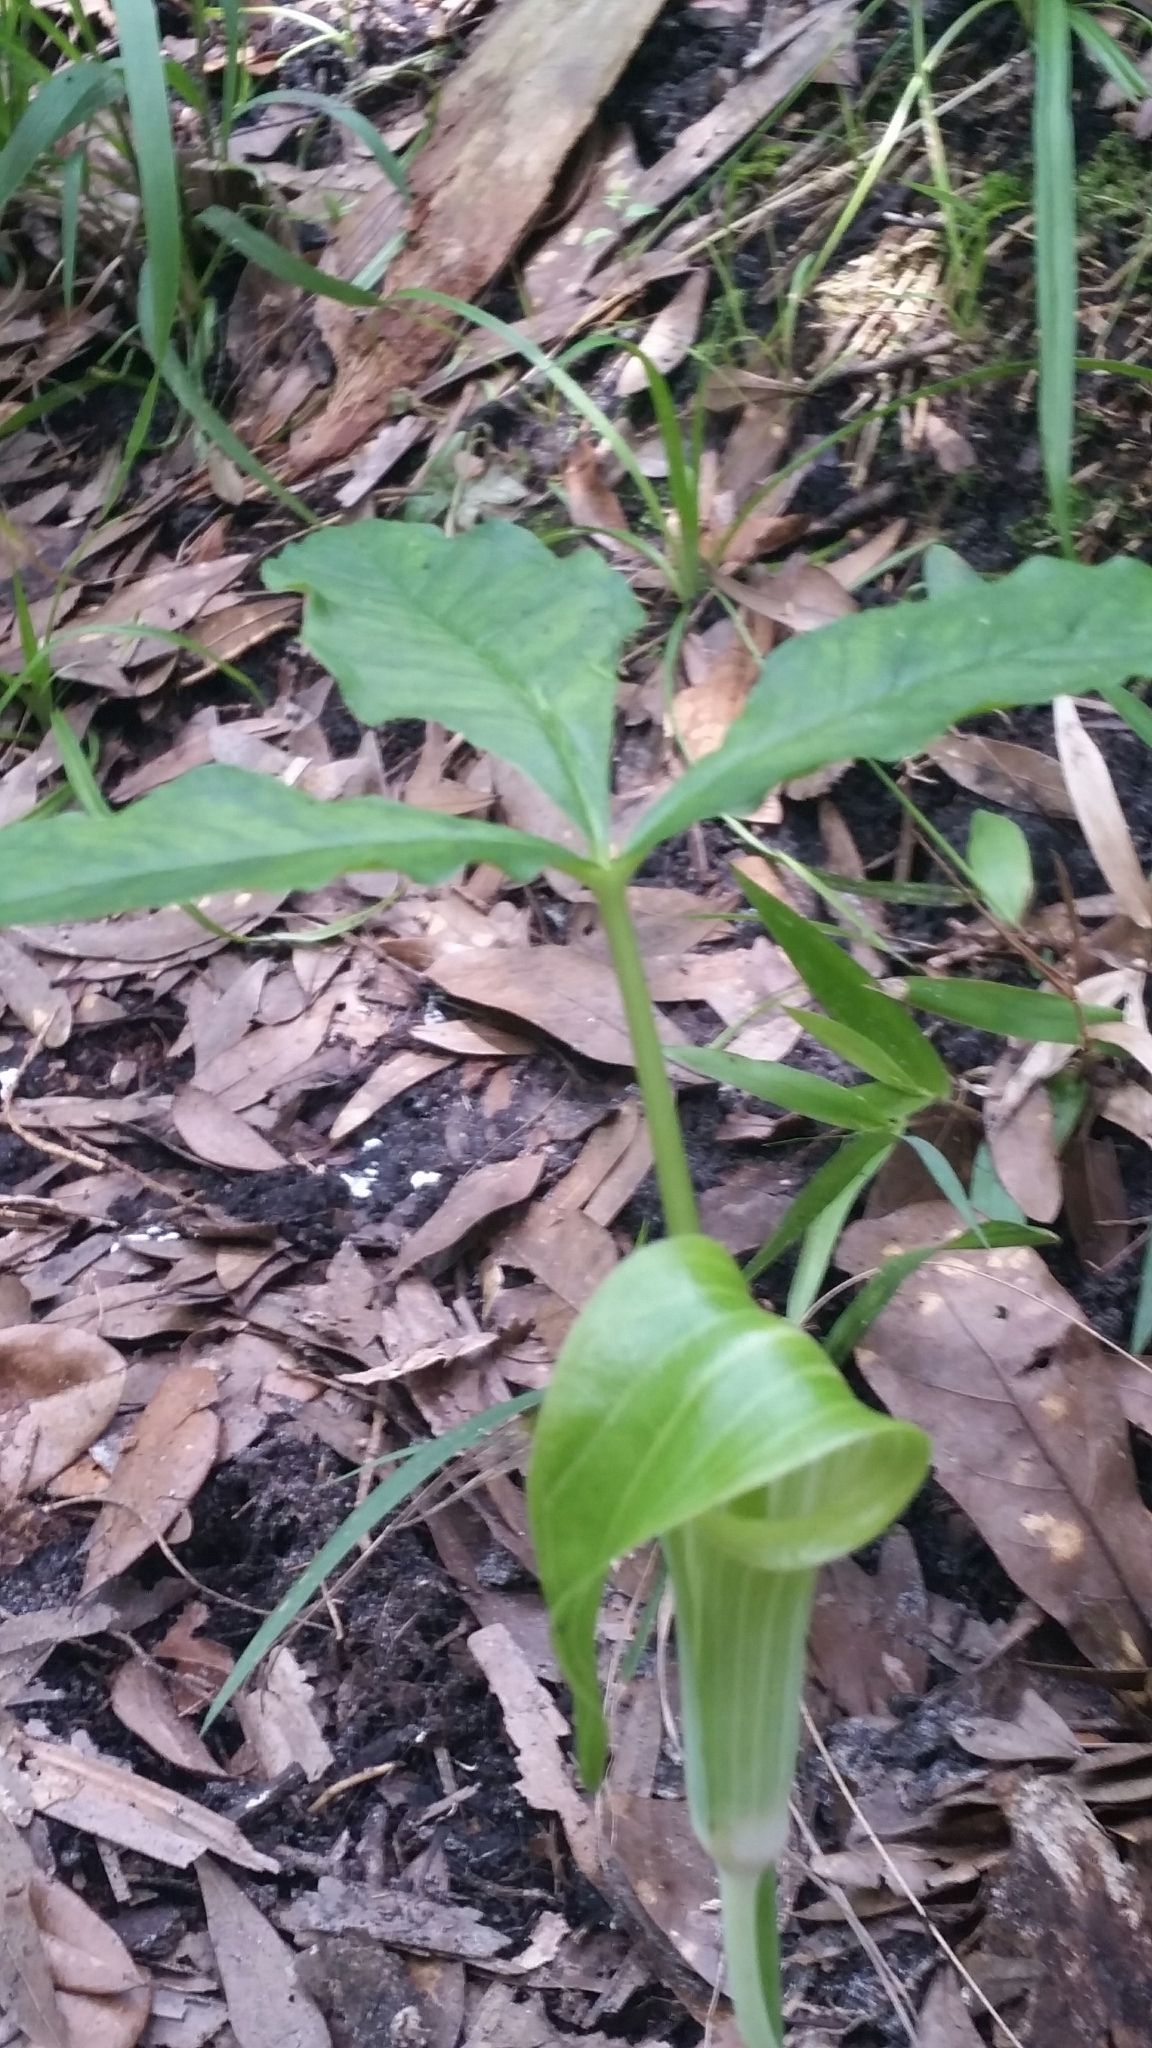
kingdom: Plantae
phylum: Tracheophyta
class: Liliopsida
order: Alismatales
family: Araceae
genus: Arisaema
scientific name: Arisaema acuminatum
